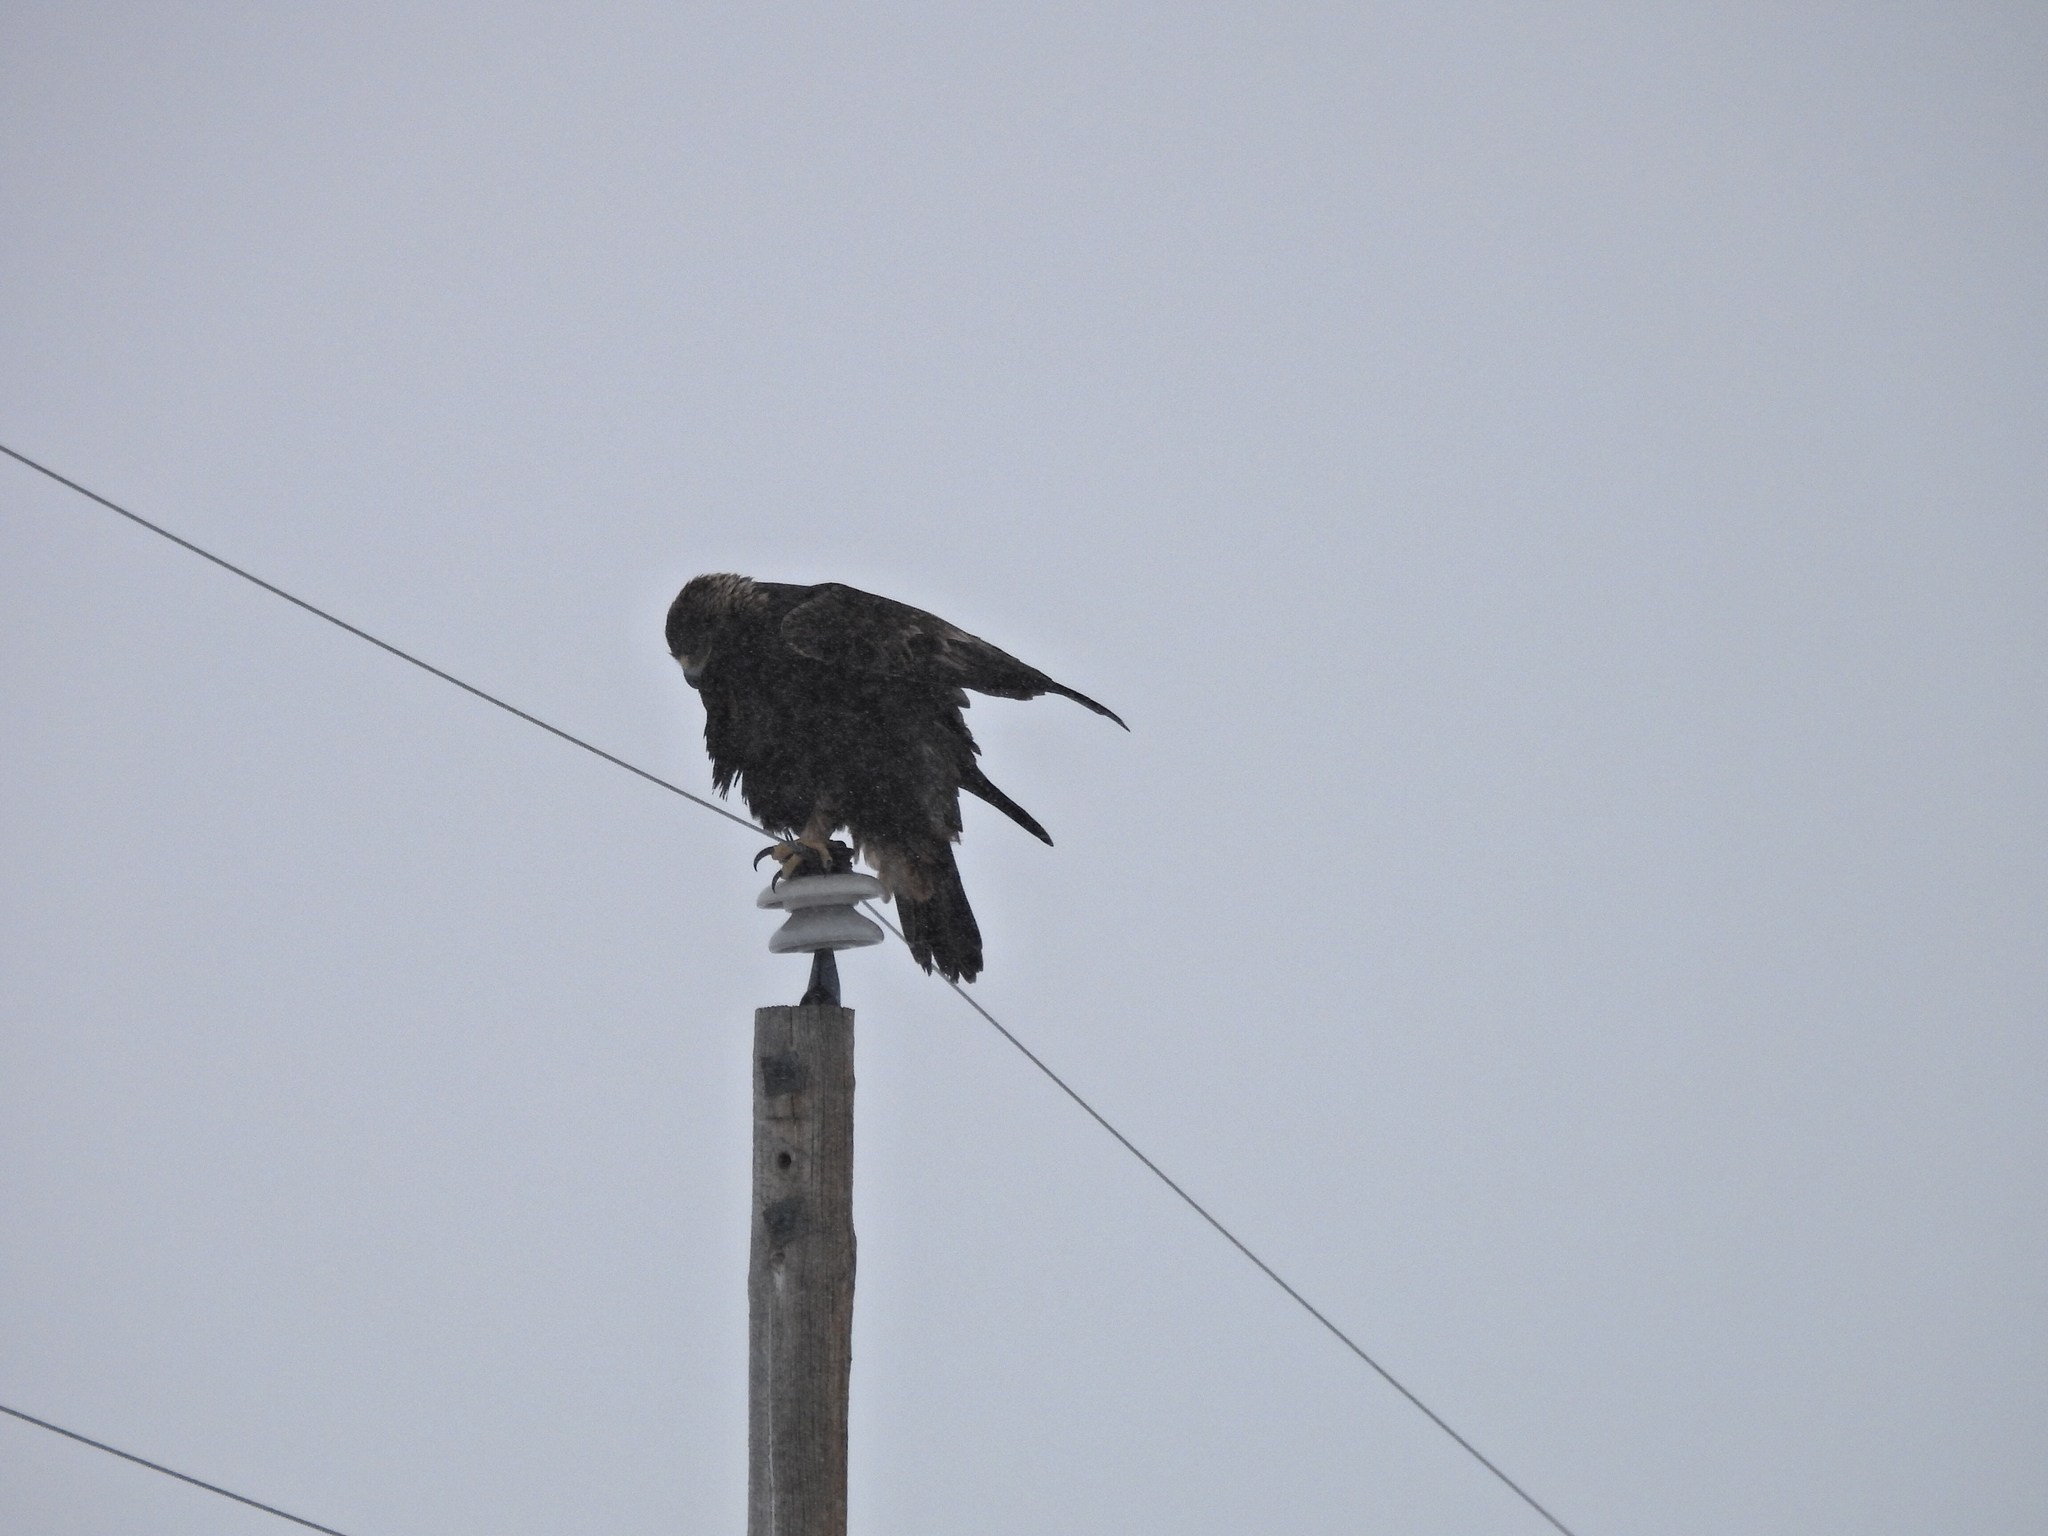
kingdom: Animalia
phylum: Chordata
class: Aves
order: Accipitriformes
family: Accipitridae
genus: Aquila
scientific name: Aquila chrysaetos
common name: Golden eagle
